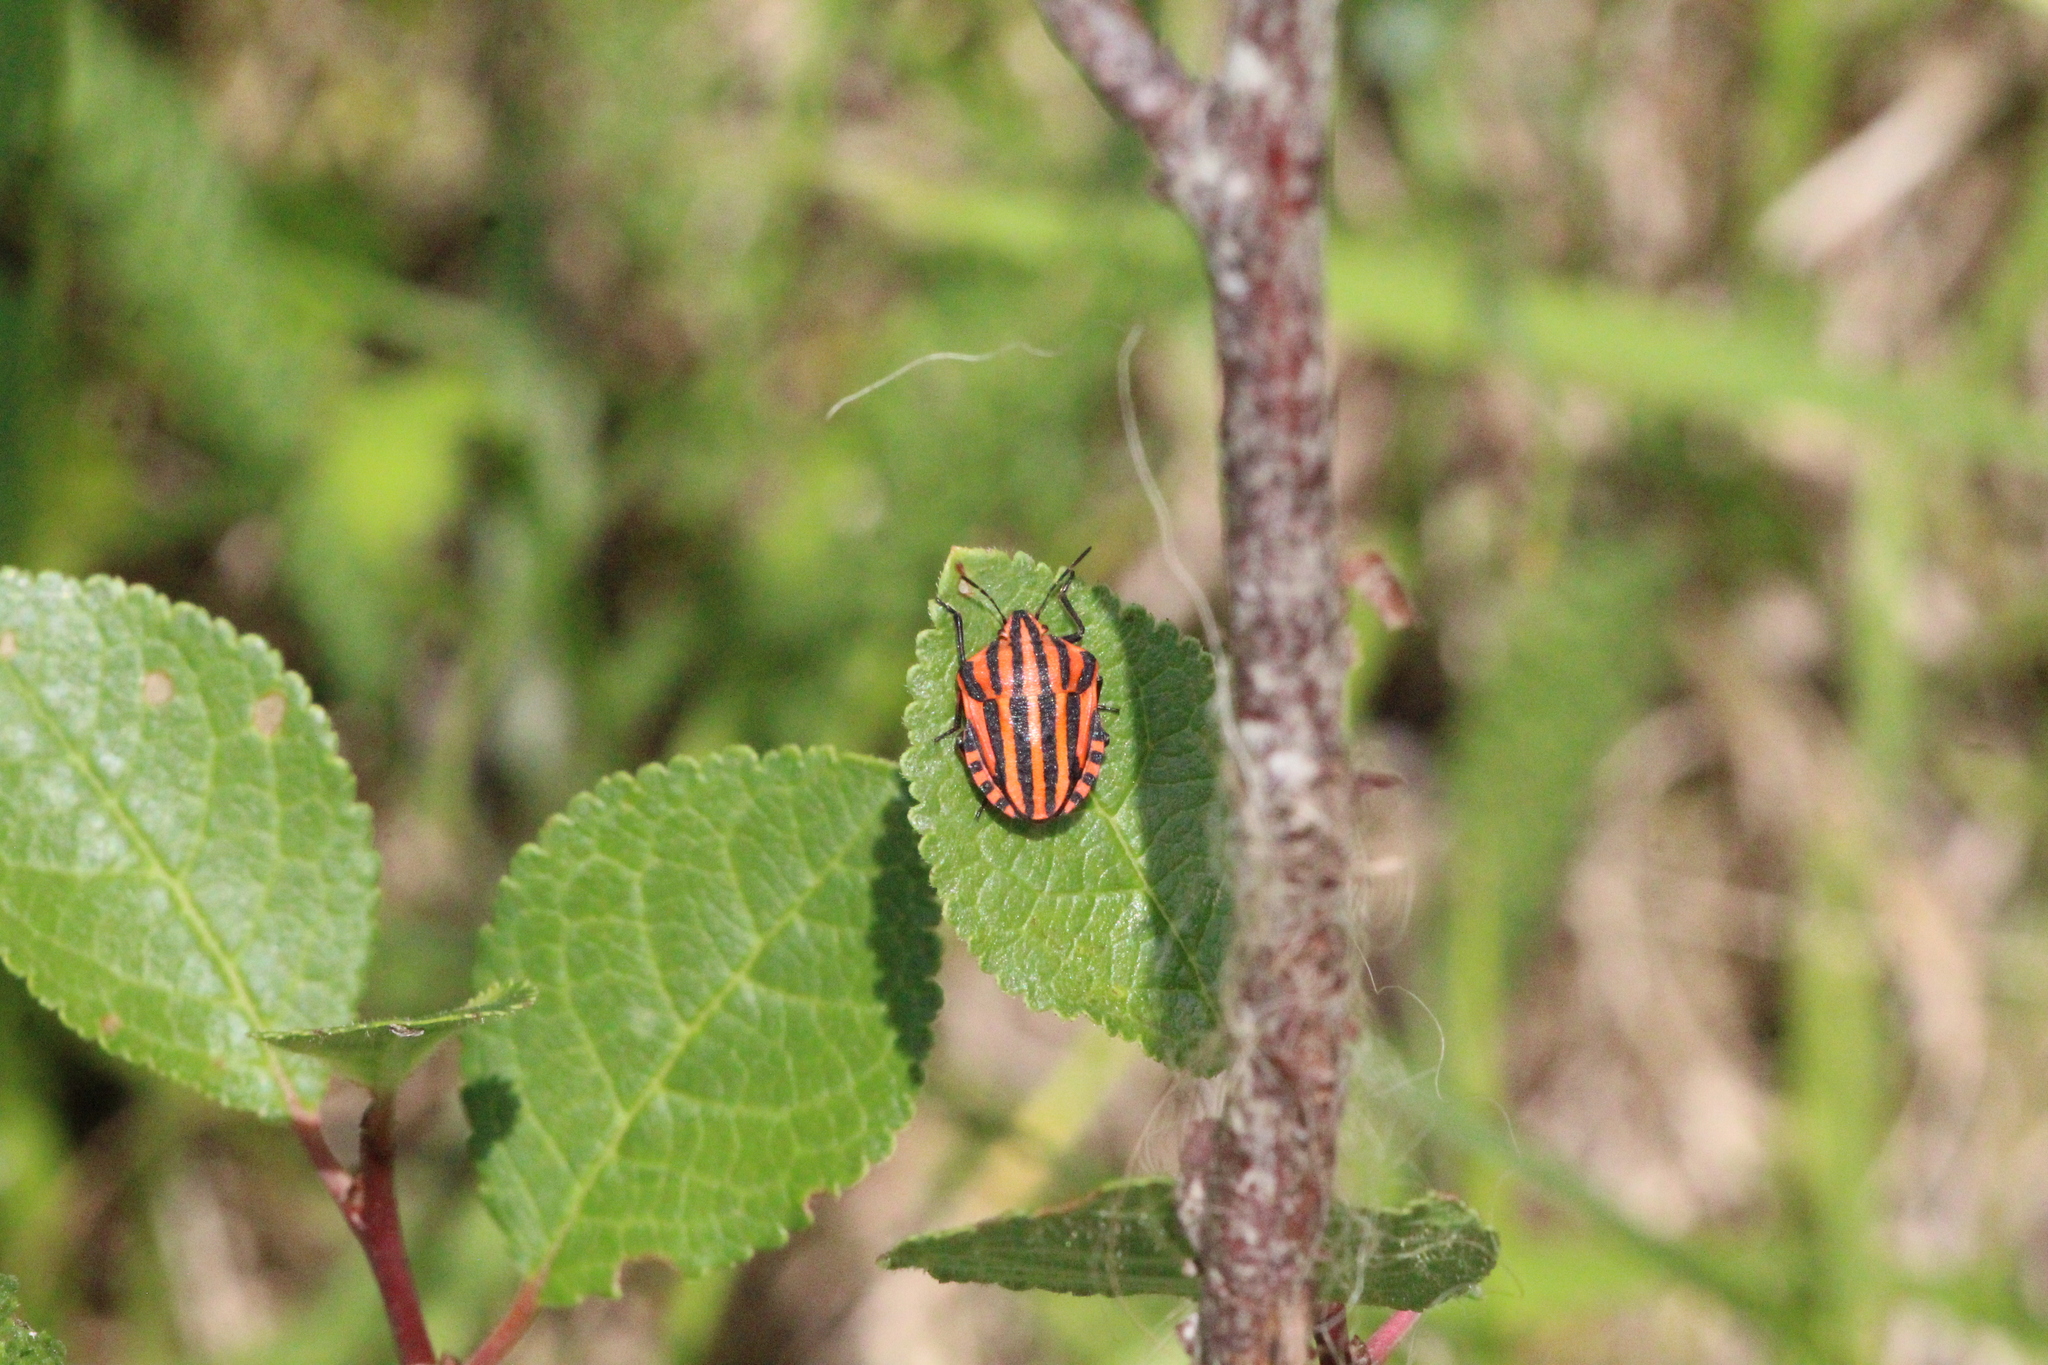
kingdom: Animalia
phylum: Arthropoda
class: Insecta
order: Hemiptera
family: Pentatomidae
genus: Graphosoma
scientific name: Graphosoma italicum
